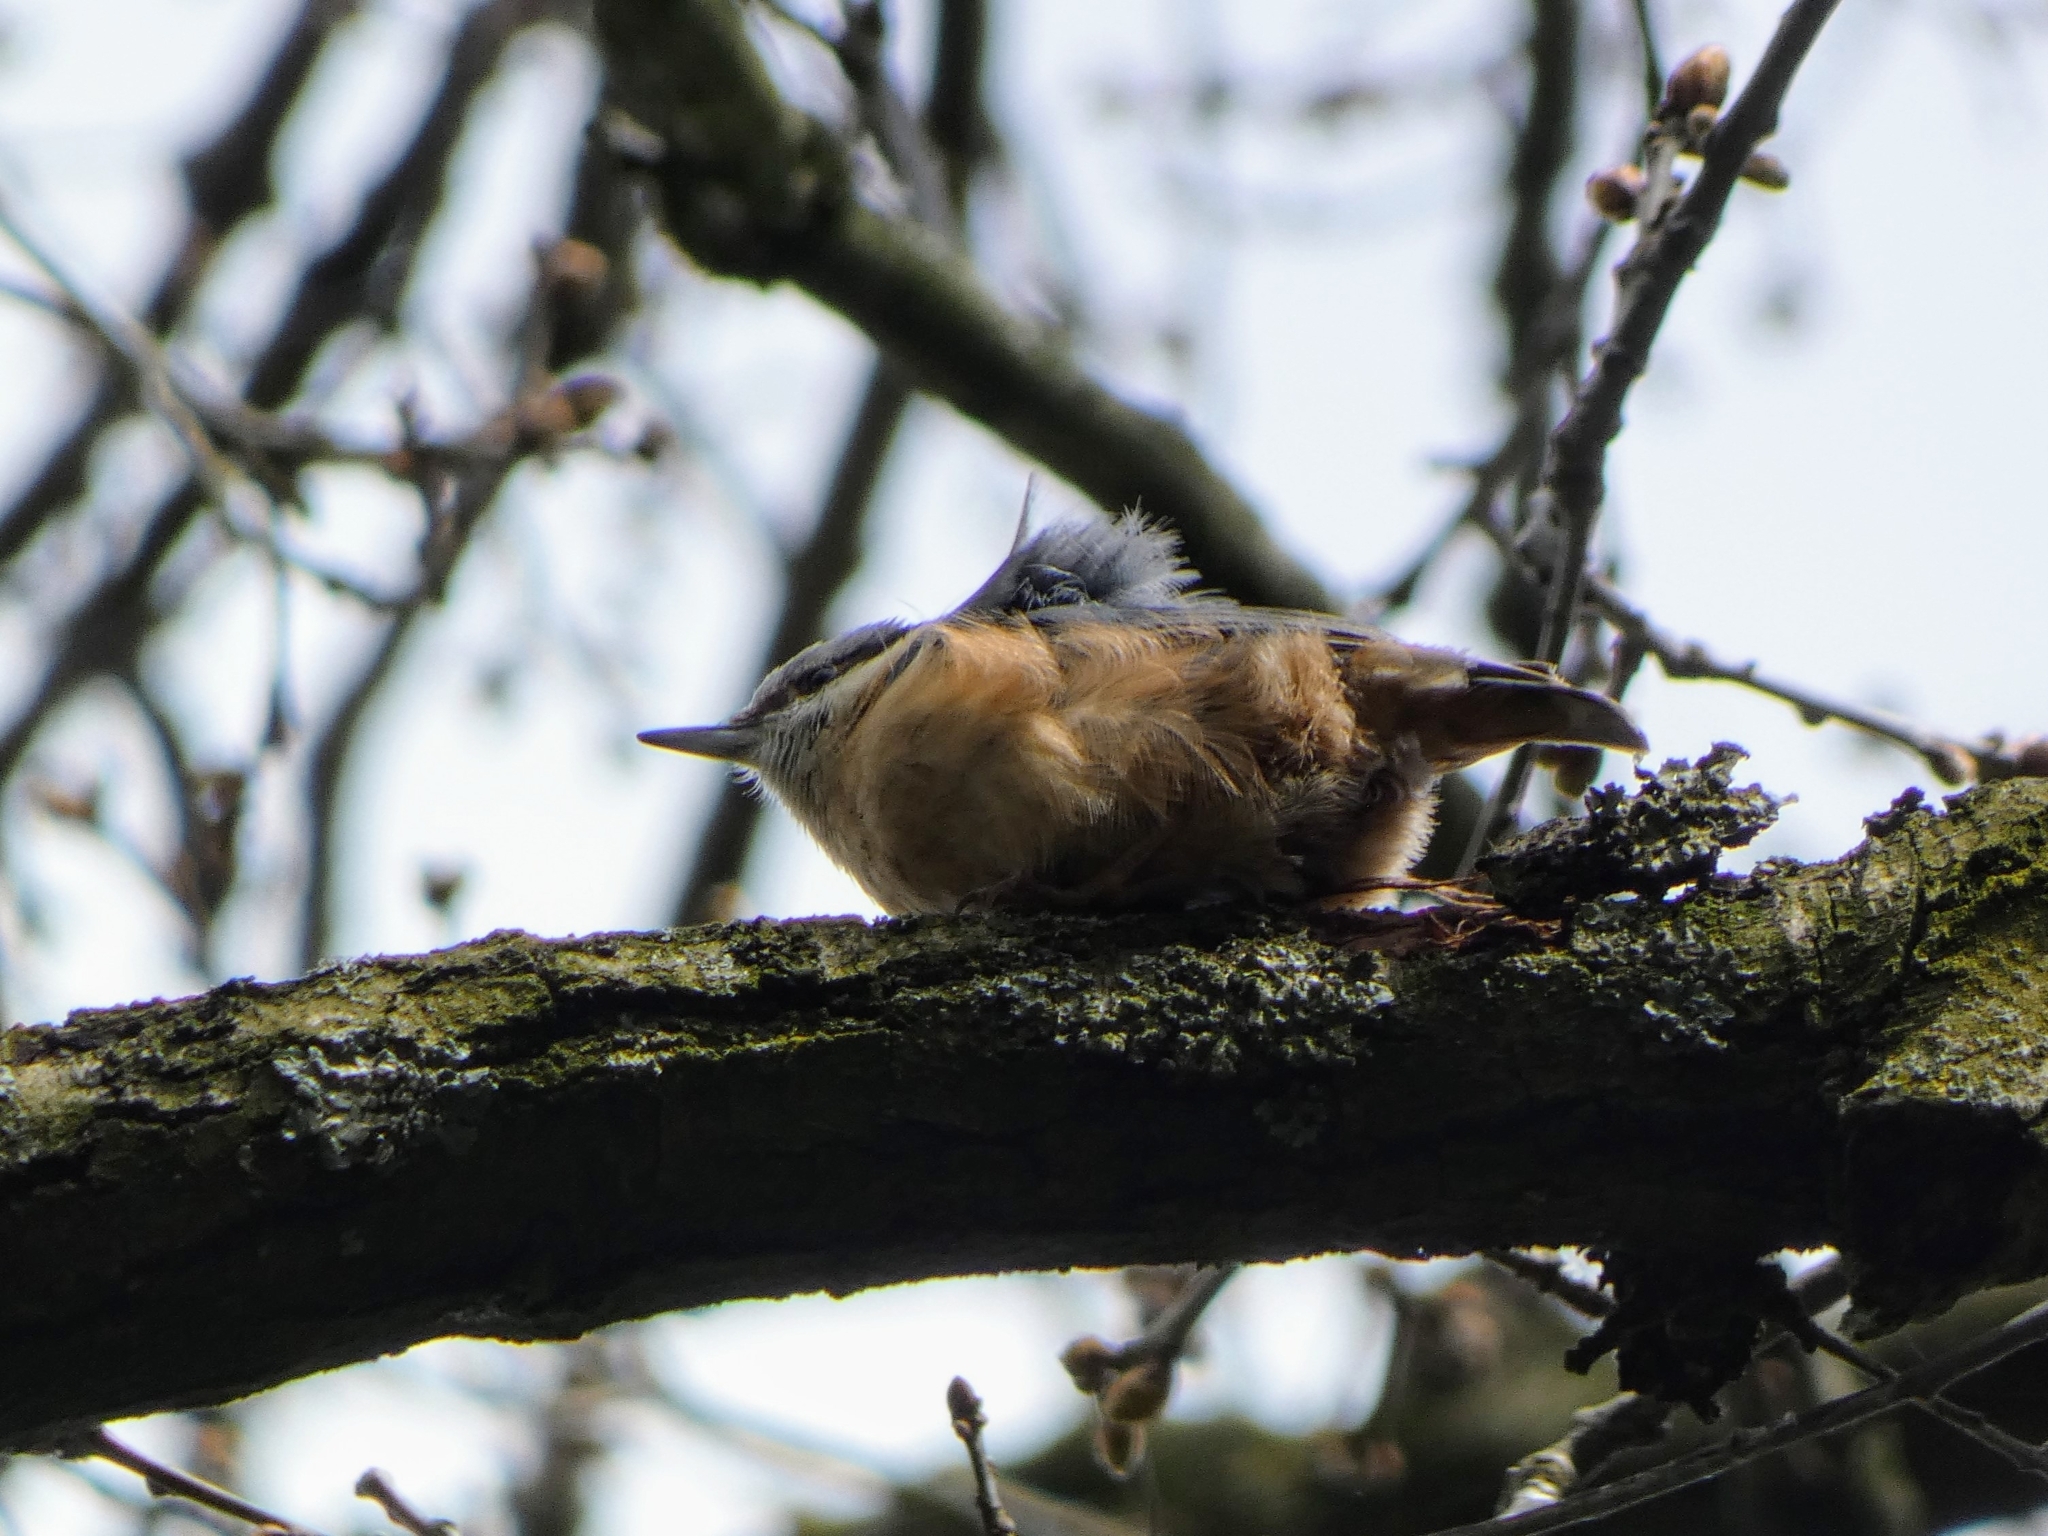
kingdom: Animalia
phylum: Chordata
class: Aves
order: Passeriformes
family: Sittidae
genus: Sitta
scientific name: Sitta europaea
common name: Eurasian nuthatch
